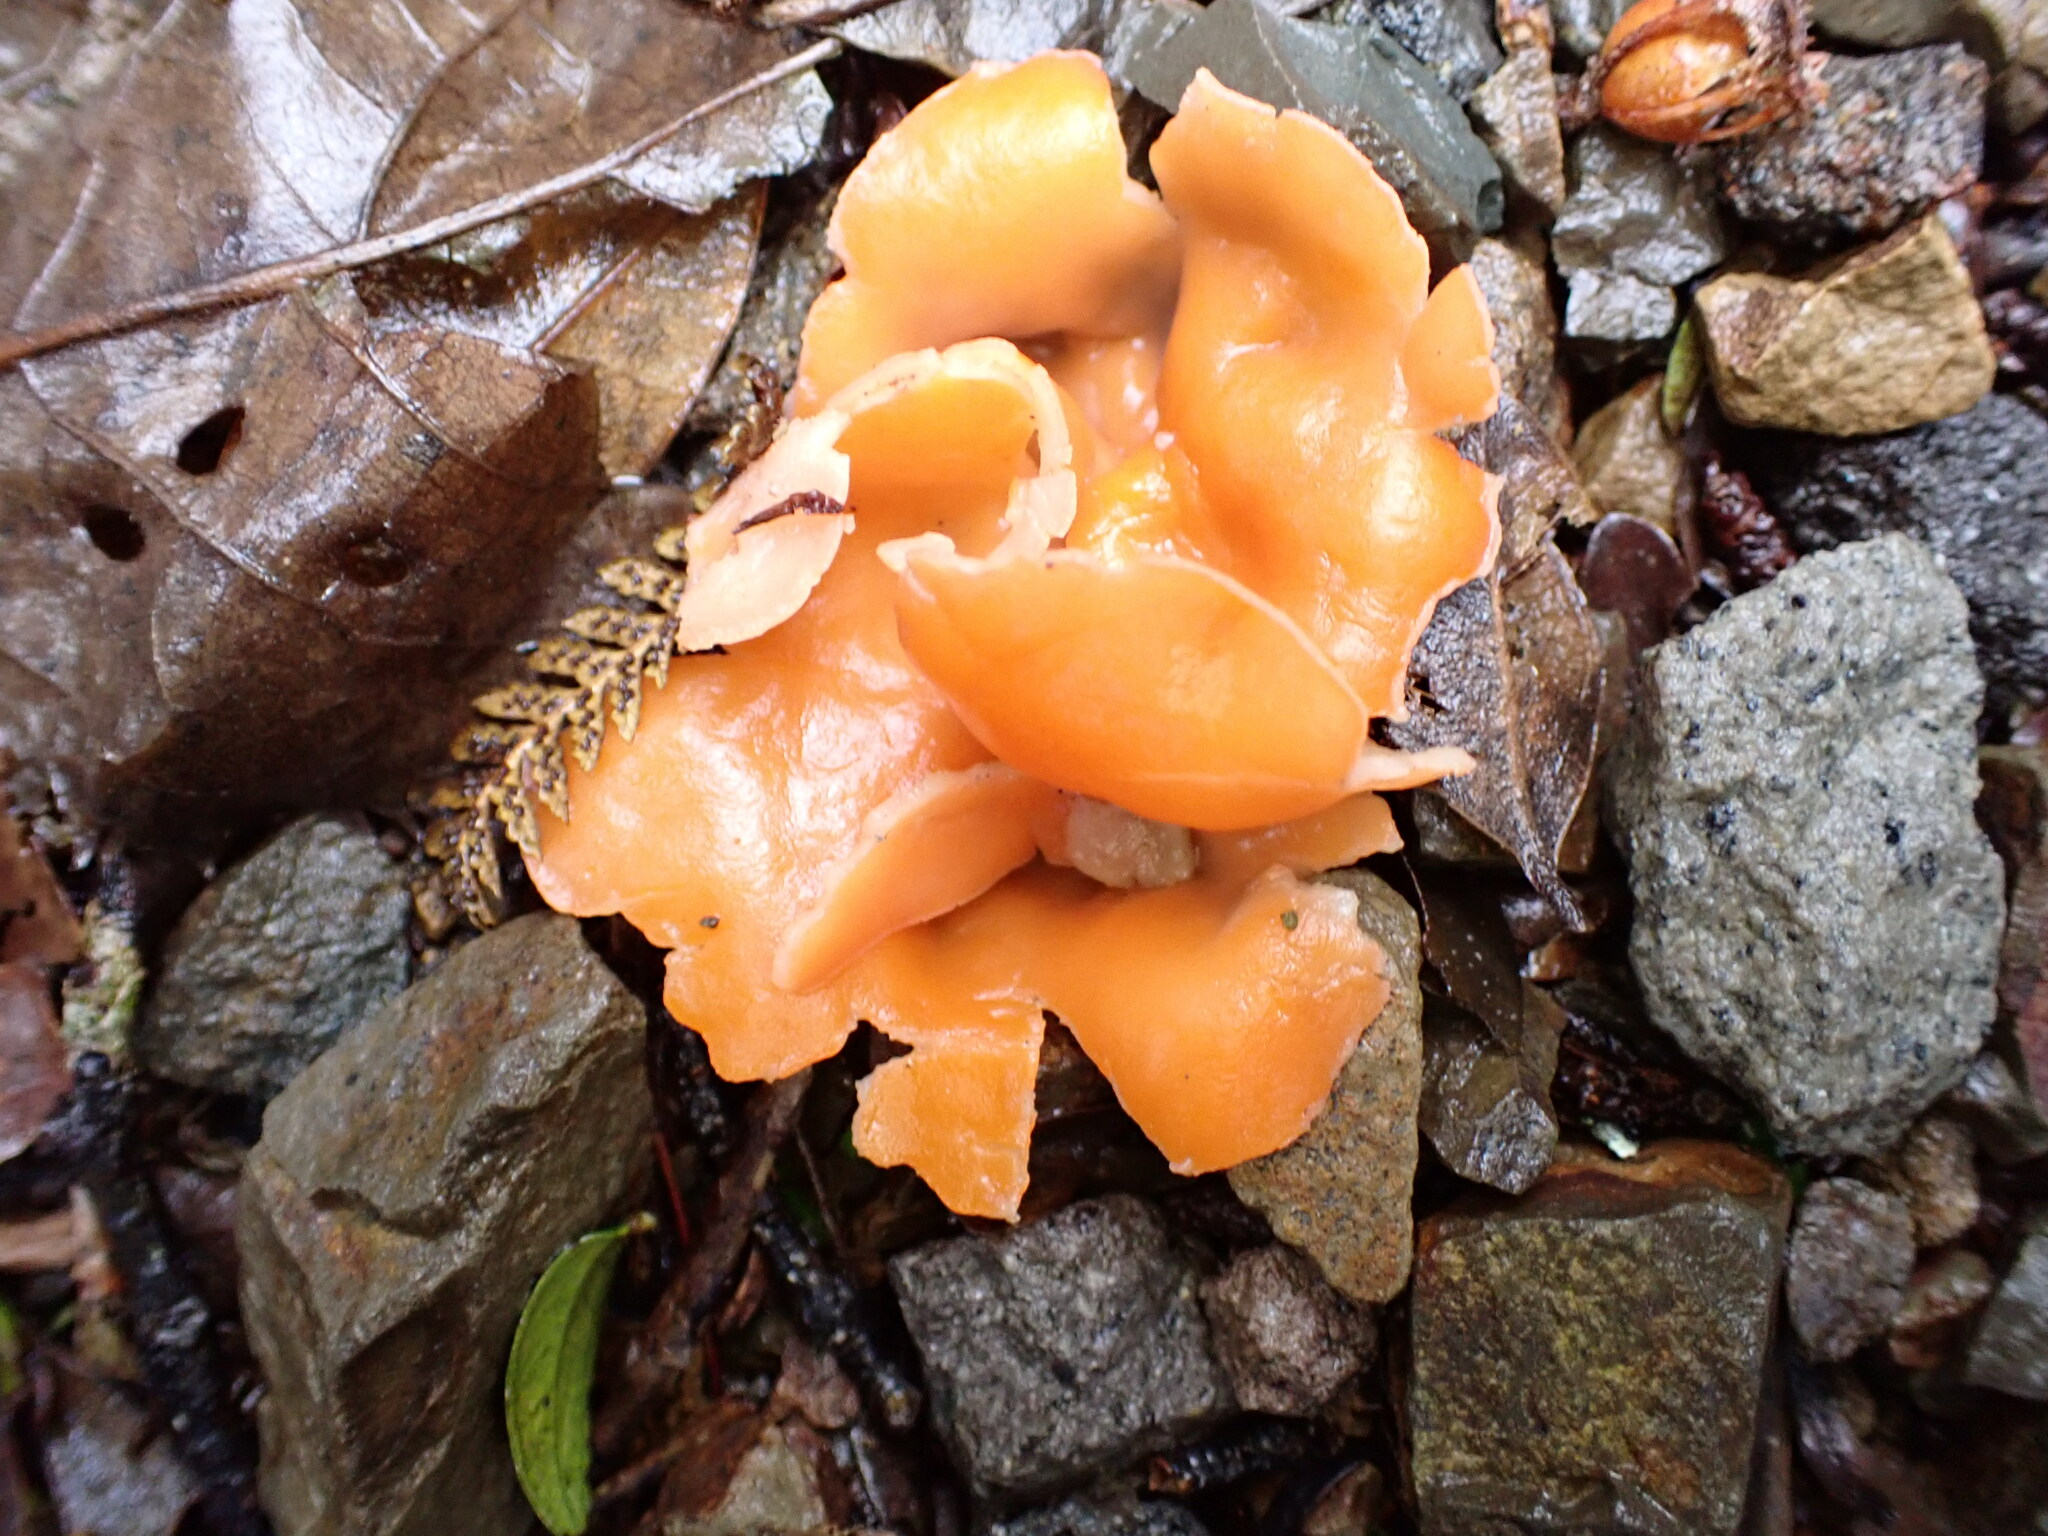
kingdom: Fungi
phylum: Ascomycota
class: Pezizomycetes
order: Pezizales
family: Pyronemataceae
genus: Aleuria
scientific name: Aleuria aurantia
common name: Orange peel fungus
